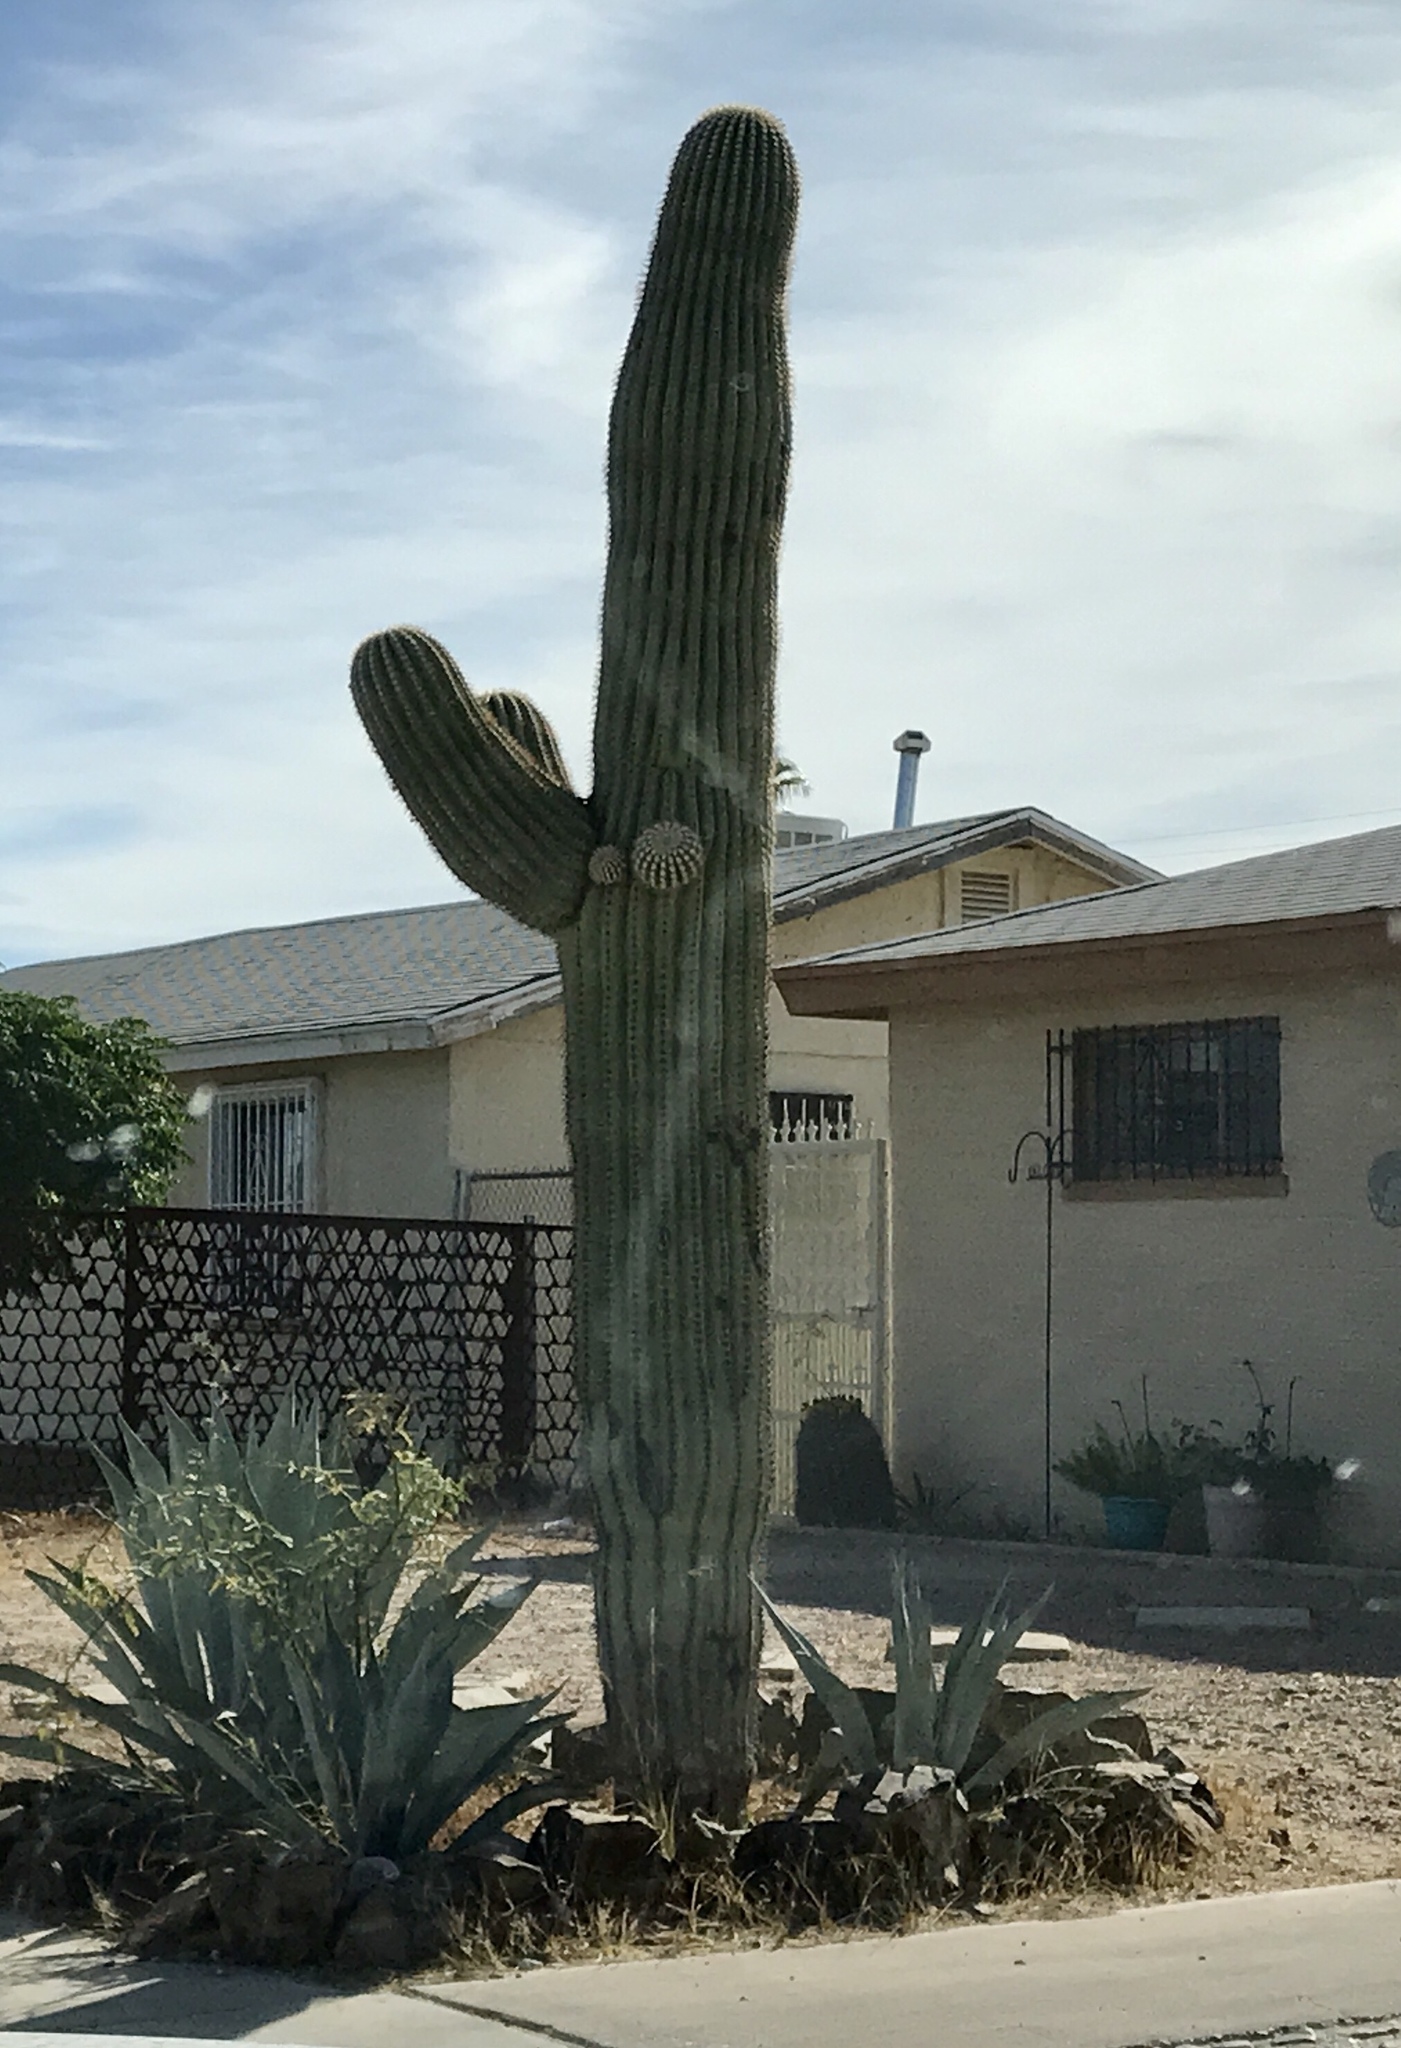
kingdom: Plantae
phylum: Tracheophyta
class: Magnoliopsida
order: Caryophyllales
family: Cactaceae
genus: Carnegiea
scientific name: Carnegiea gigantea
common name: Saguaro
